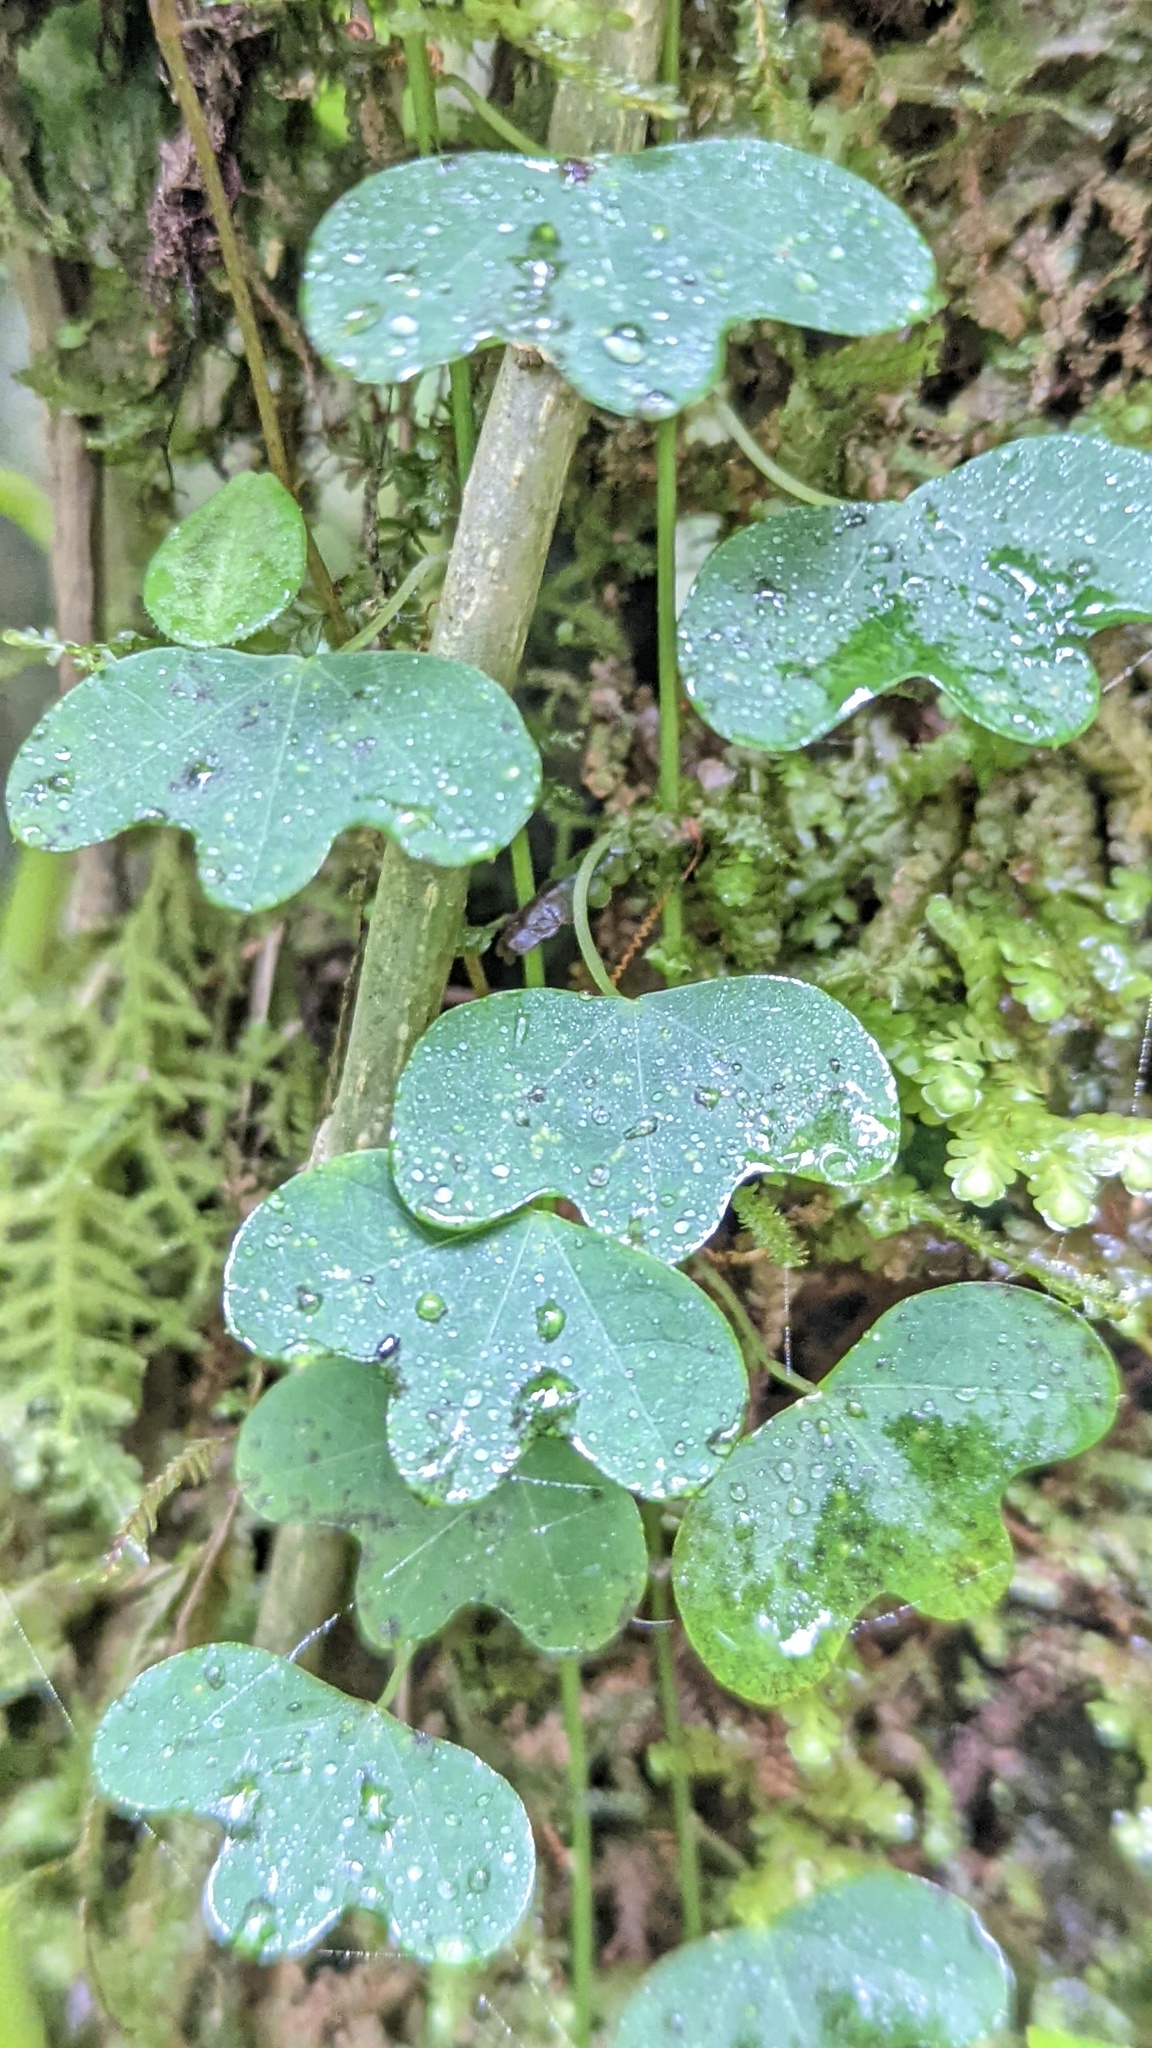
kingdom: Plantae
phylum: Tracheophyta
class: Magnoliopsida
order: Malpighiales
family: Passifloraceae
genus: Passiflora
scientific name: Passiflora lancearia
